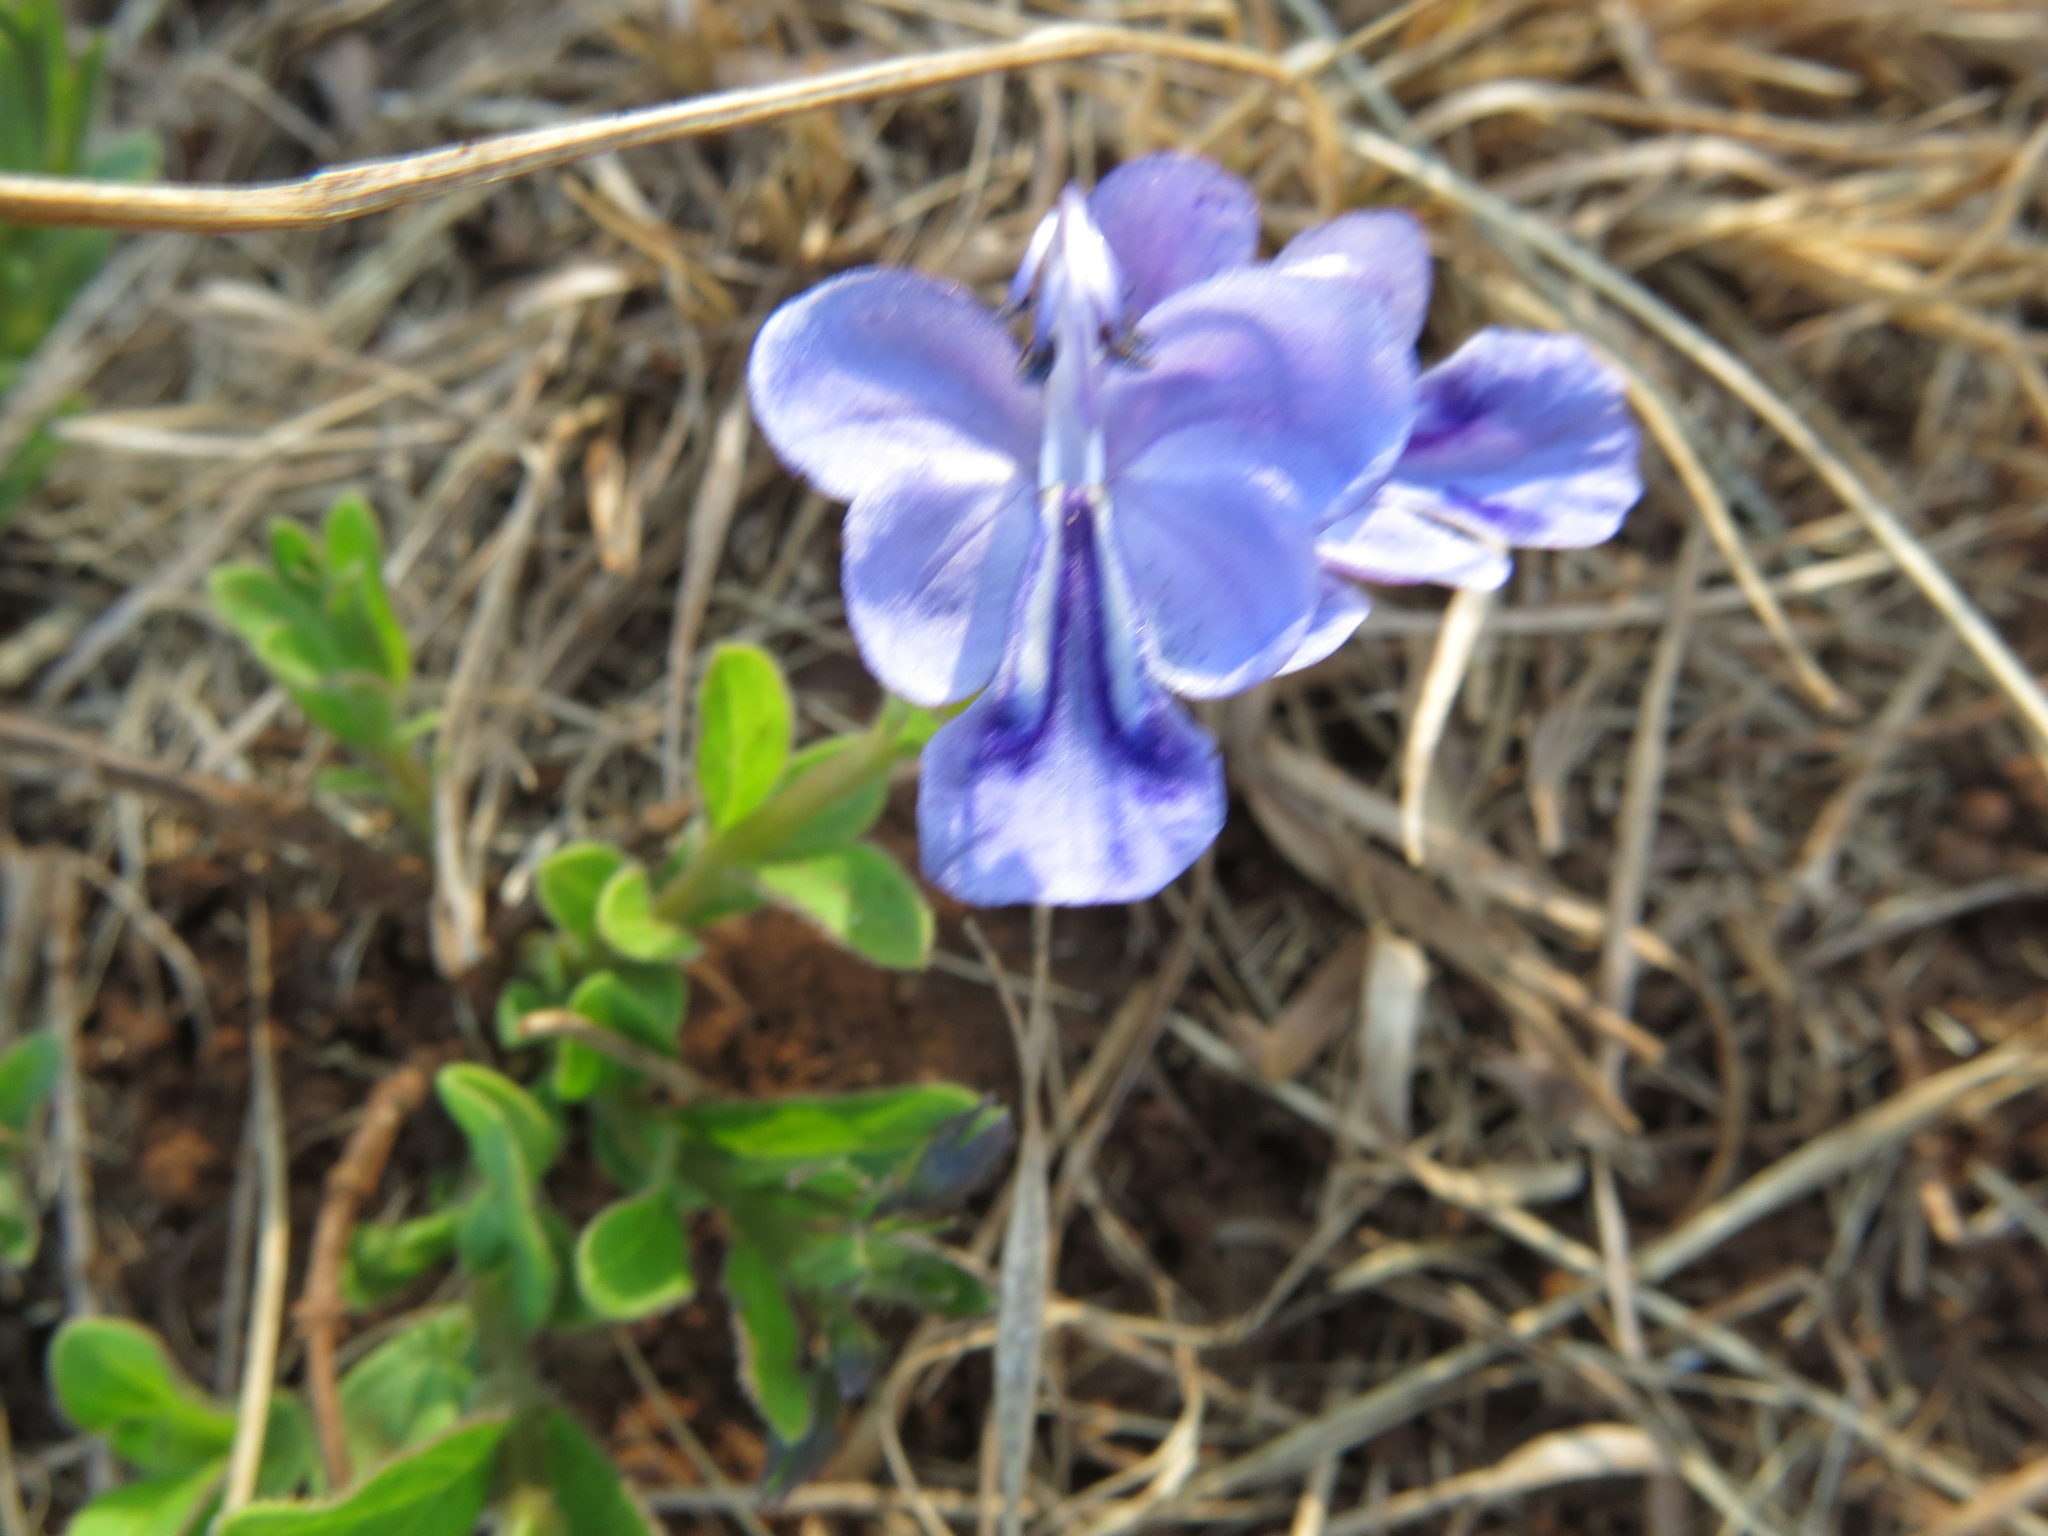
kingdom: Plantae
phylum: Tracheophyta
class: Magnoliopsida
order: Lamiales
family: Lamiaceae
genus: Rotheca
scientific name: Rotheca hirsuta
